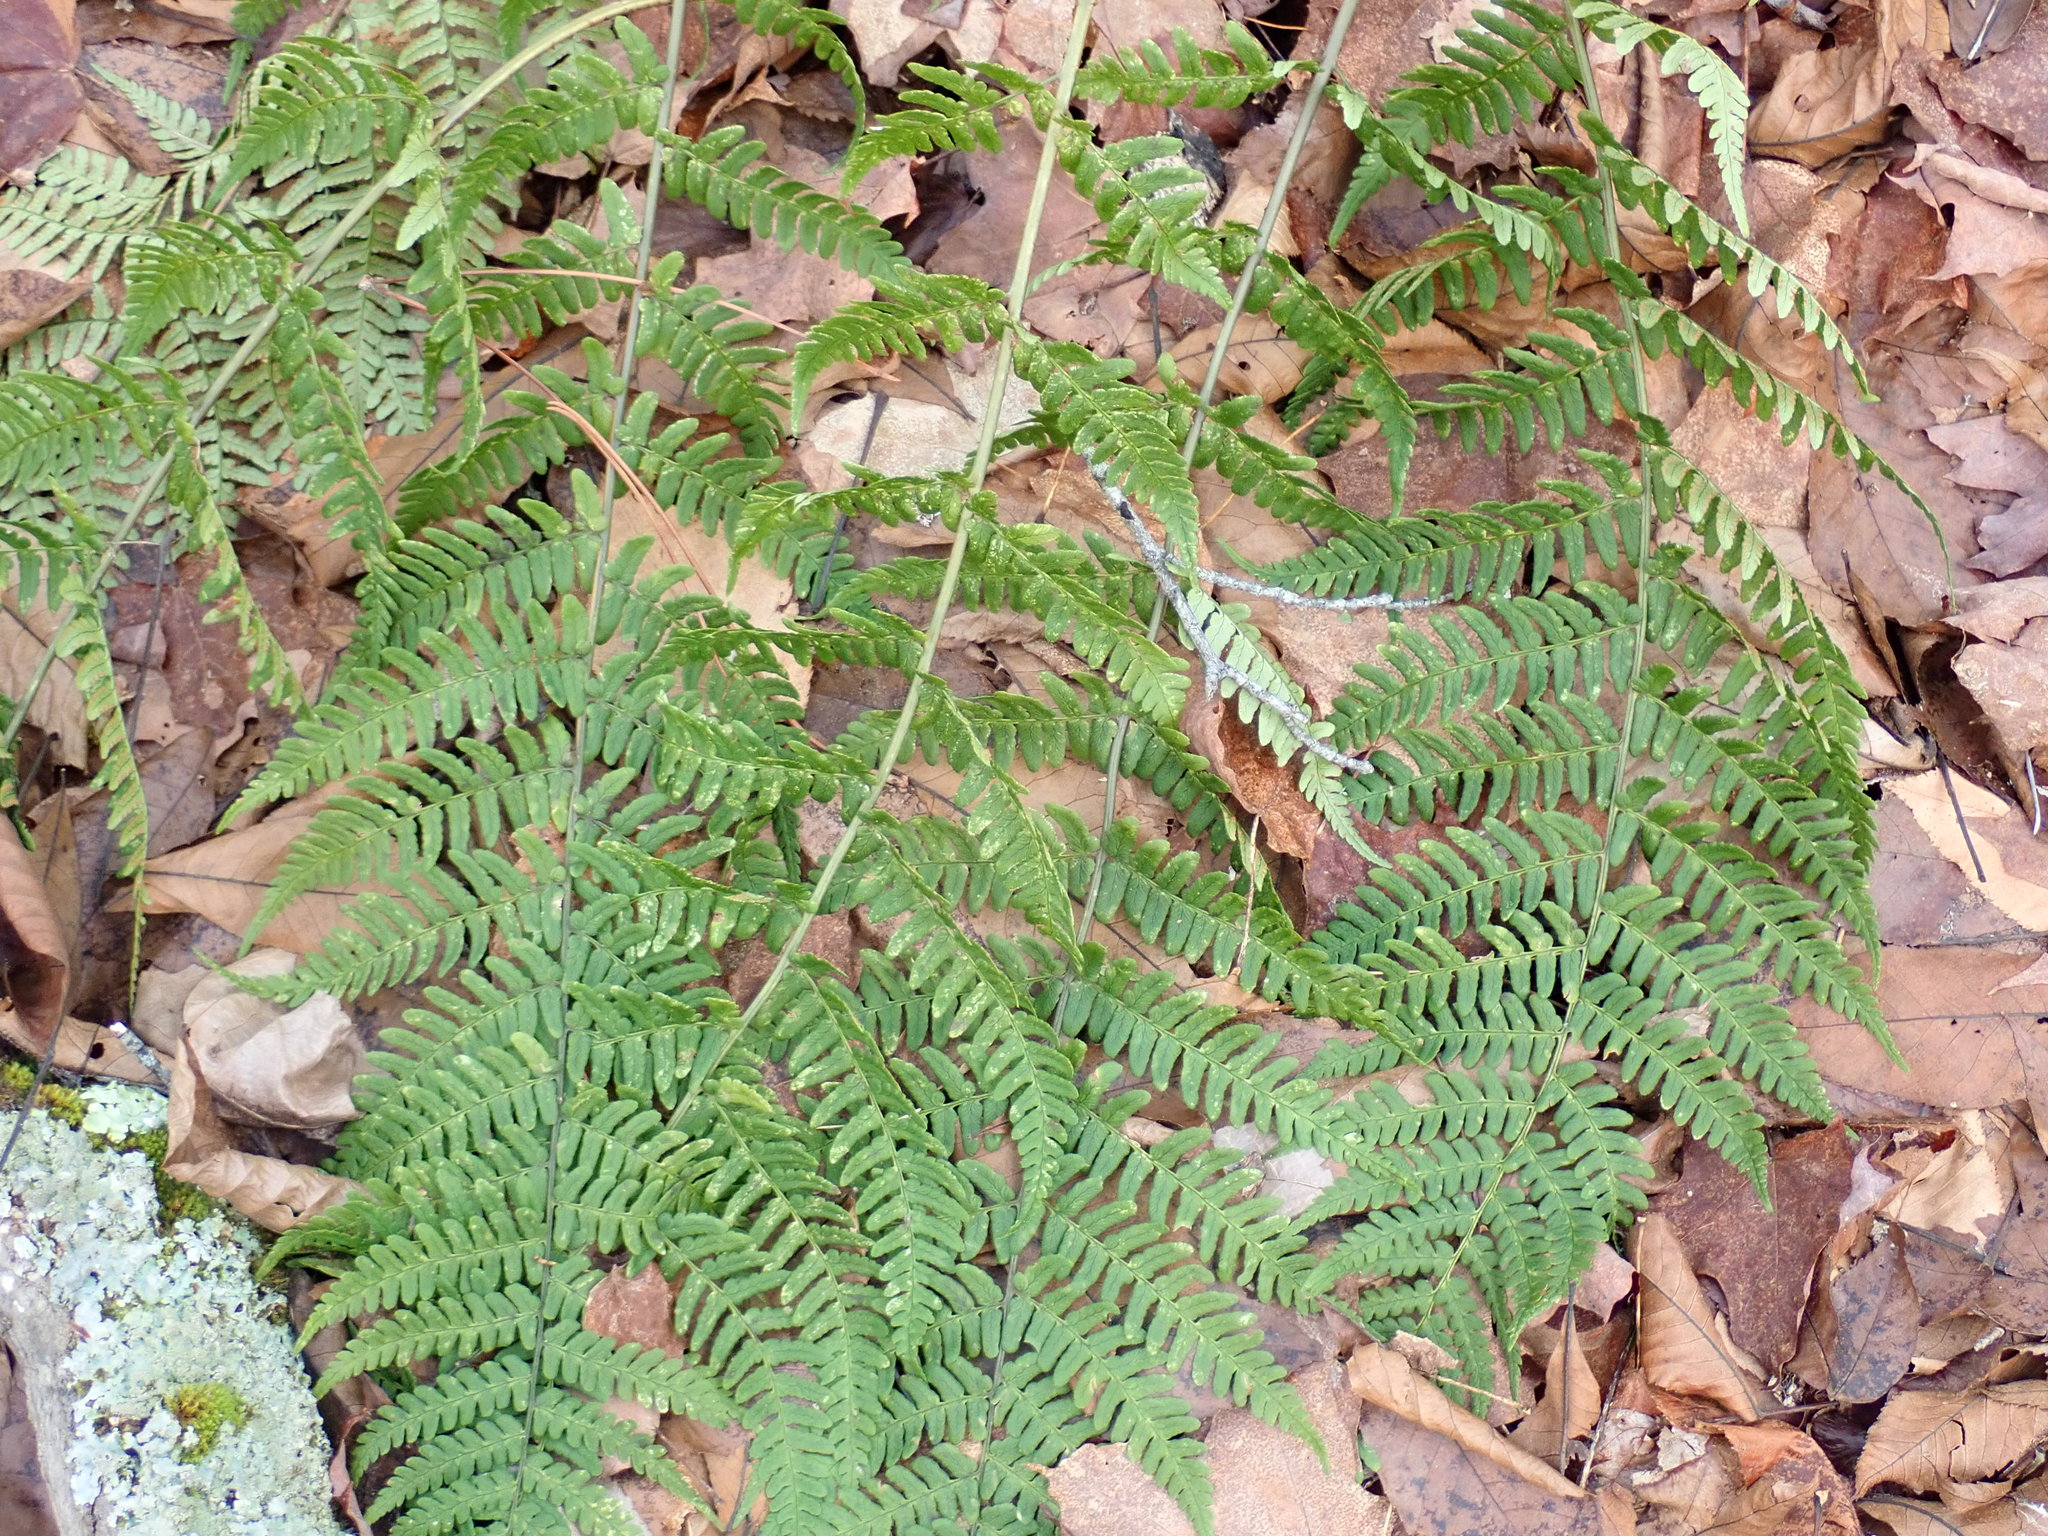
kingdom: Plantae
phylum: Tracheophyta
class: Polypodiopsida
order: Polypodiales
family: Dryopteridaceae
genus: Dryopteris
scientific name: Dryopteris marginalis
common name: Marginal wood fern
